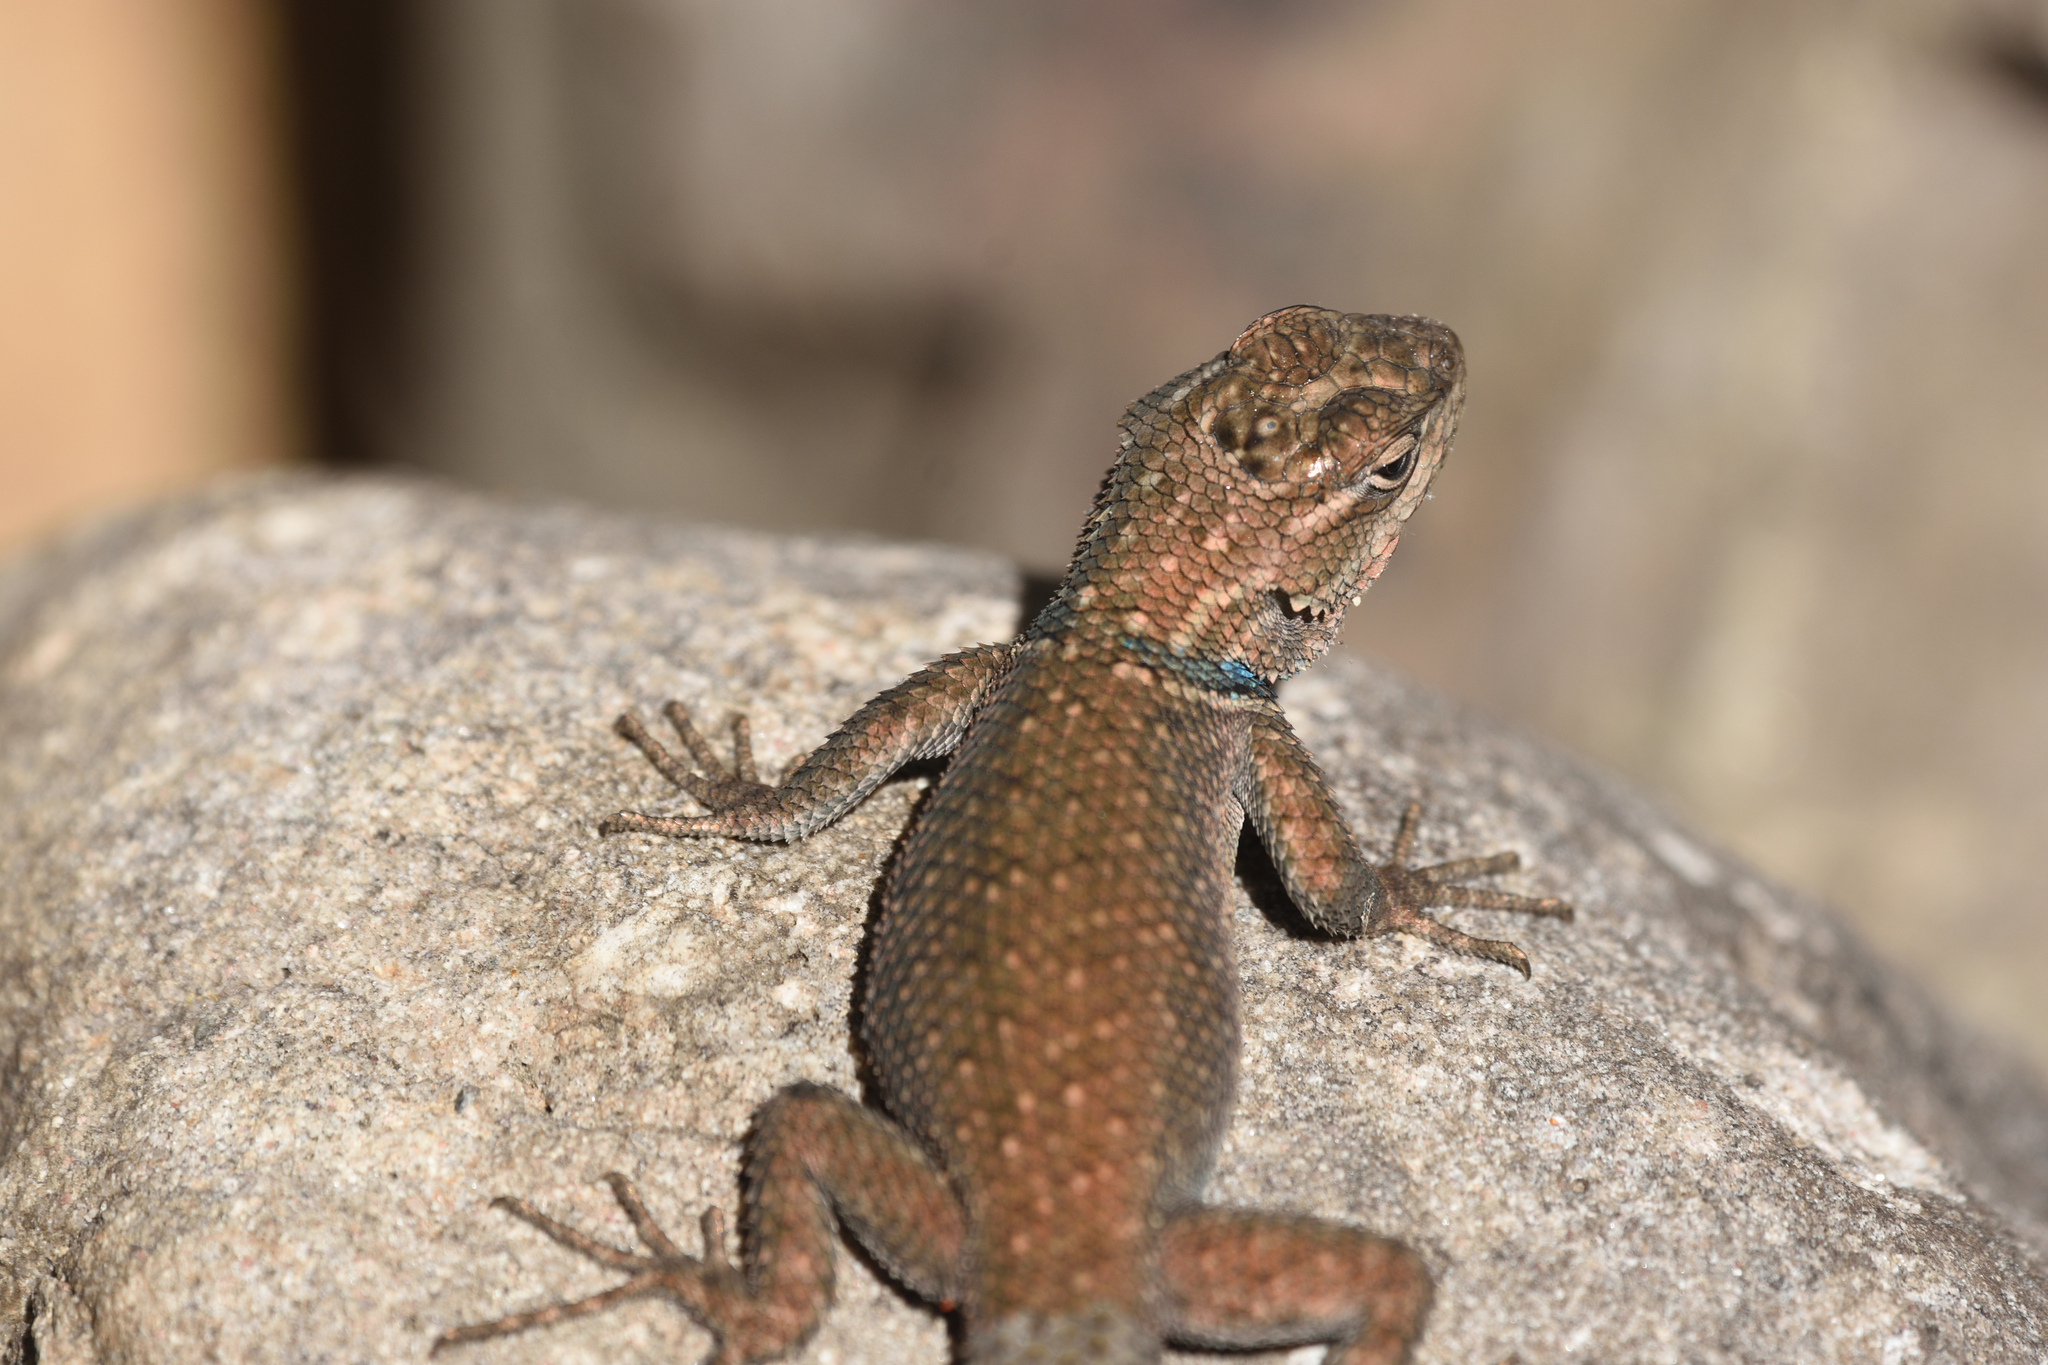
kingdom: Animalia
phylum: Chordata
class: Squamata
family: Phrynosomatidae
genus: Sceloporus
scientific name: Sceloporus jarrovii
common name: Yarrow's spiny lizard
